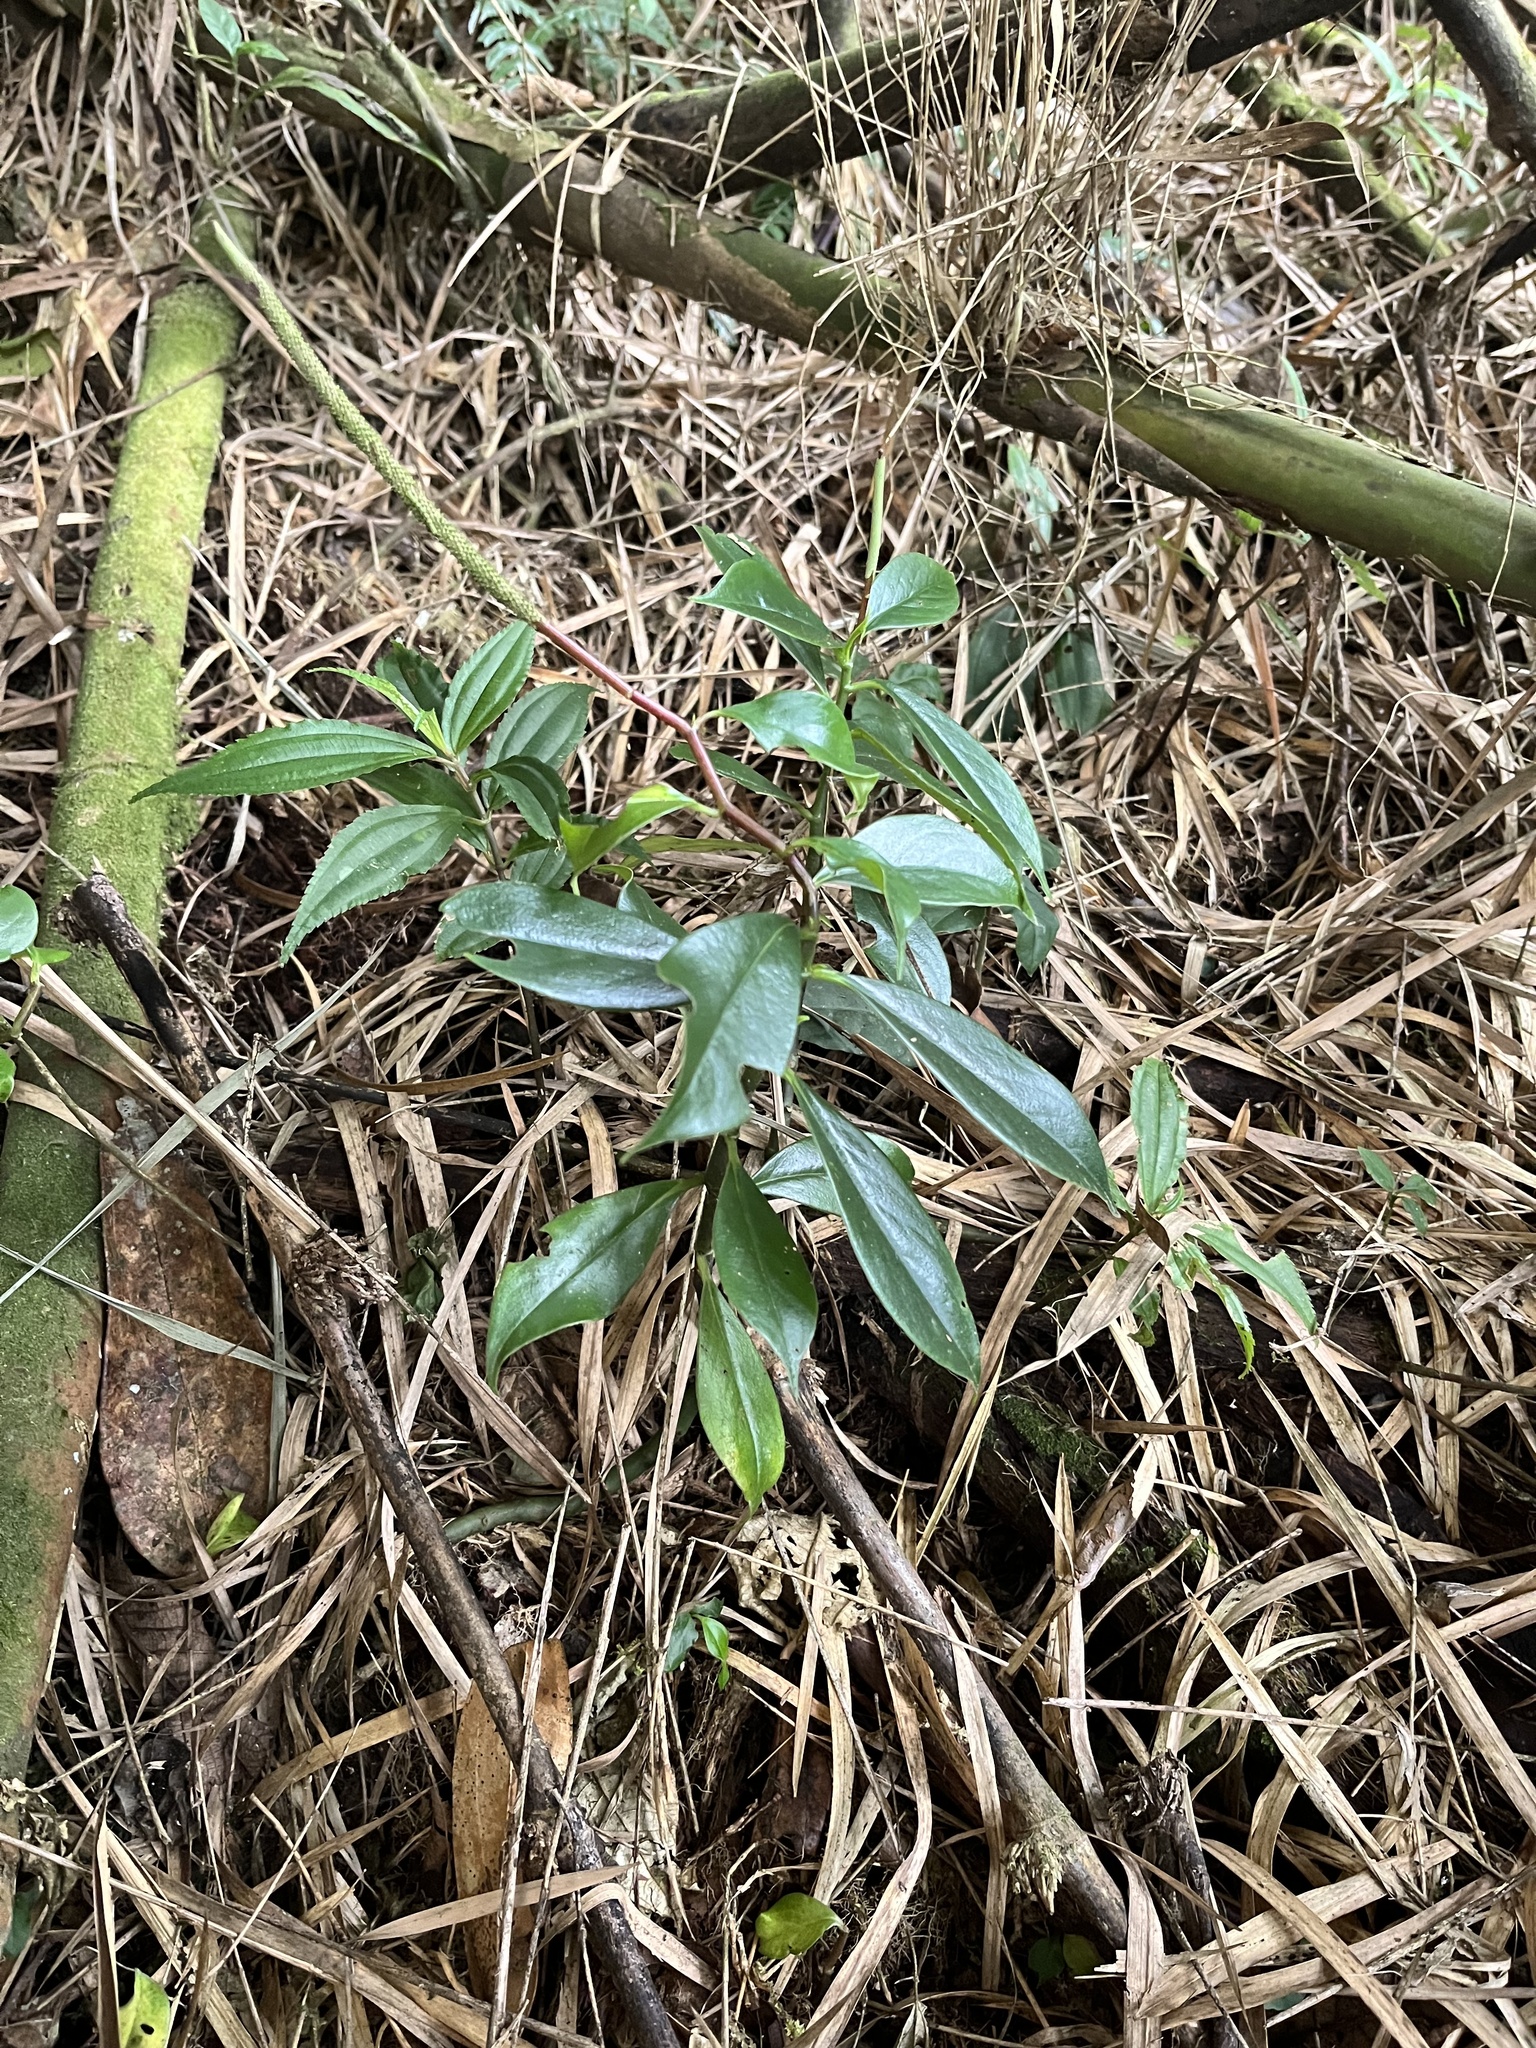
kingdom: Plantae
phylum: Tracheophyta
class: Magnoliopsida
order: Piperales
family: Piperaceae
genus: Peperomia
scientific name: Peperomia acuminata
